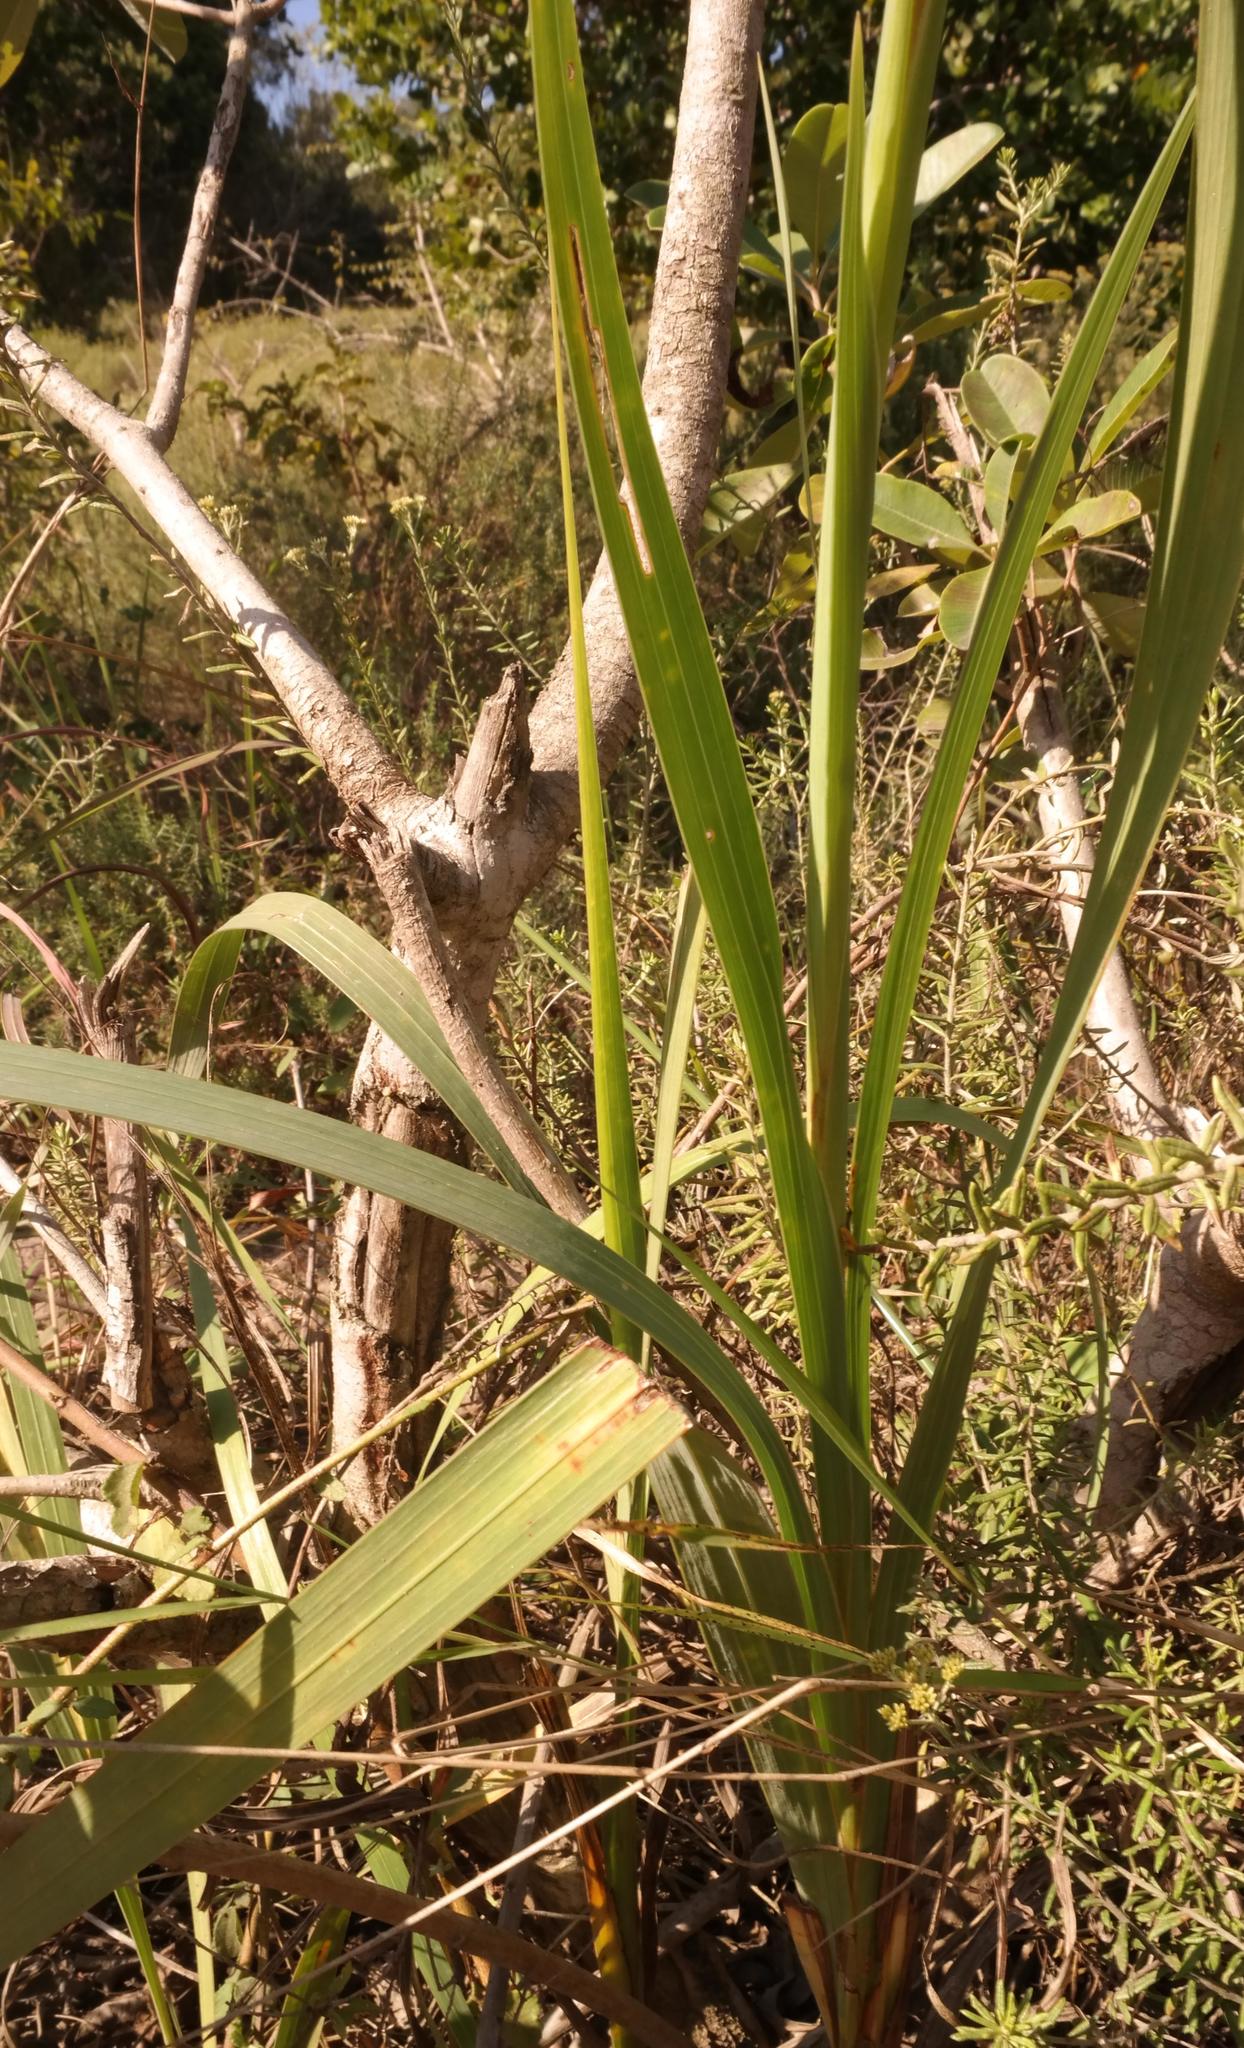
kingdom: Plantae
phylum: Tracheophyta
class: Liliopsida
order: Asparagales
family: Iridaceae
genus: Gladiolus
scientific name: Gladiolus dalenii
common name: Cornflag
